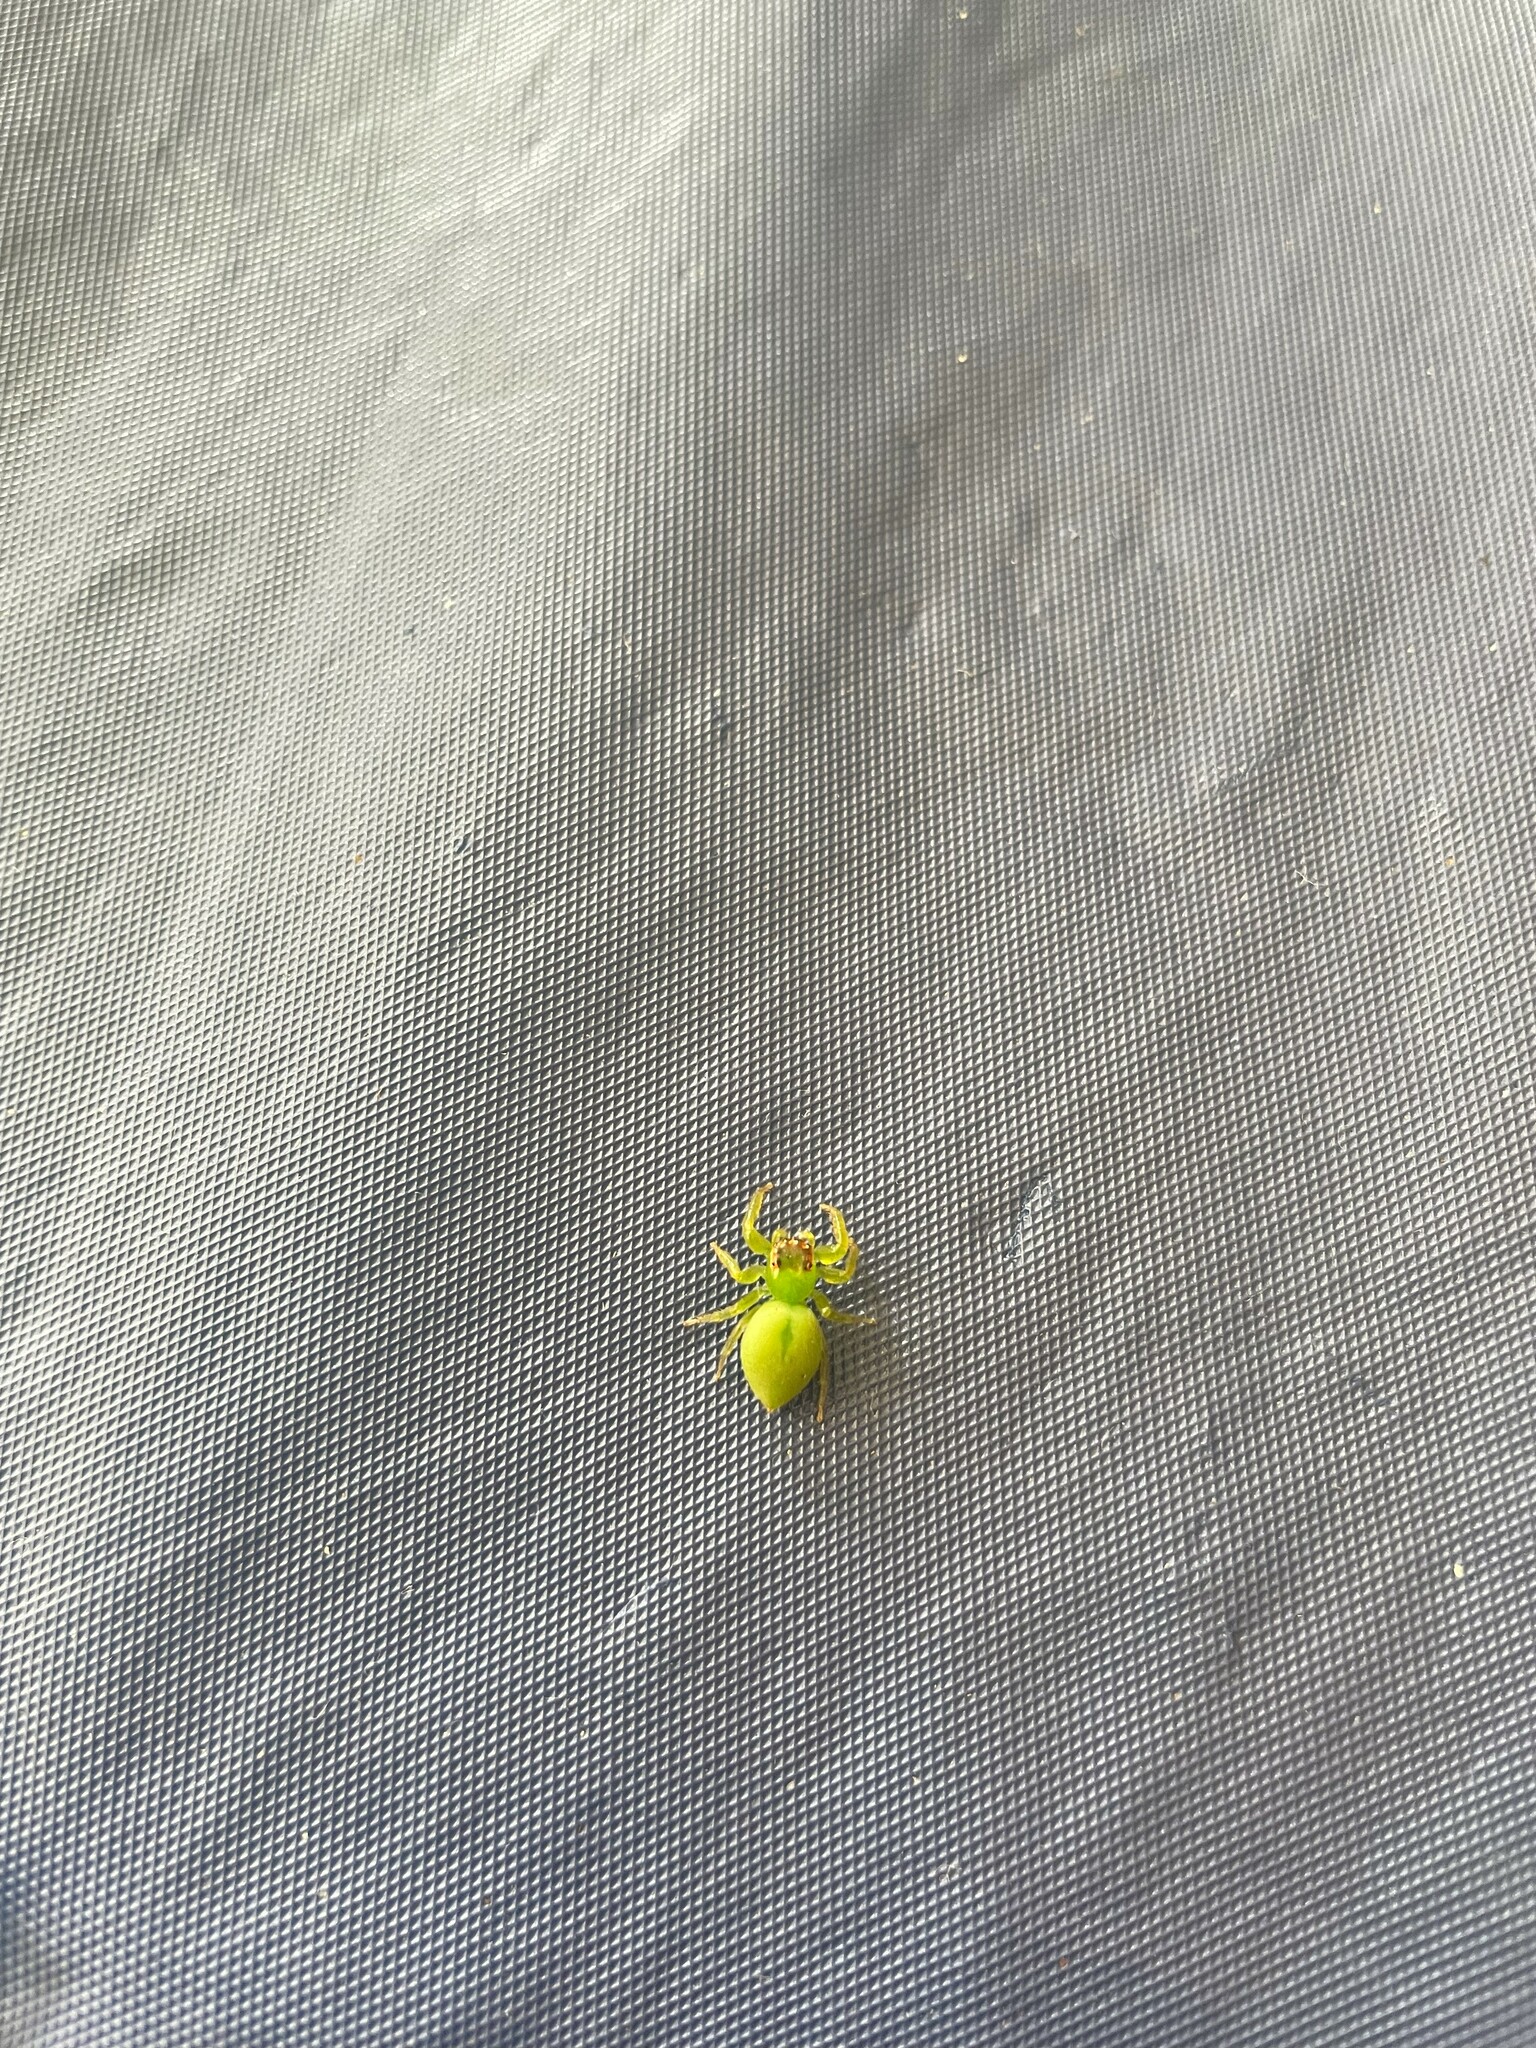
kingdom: Animalia
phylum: Arthropoda
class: Arachnida
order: Araneae
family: Salticidae
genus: Thyenula
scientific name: Thyenula juvenca
